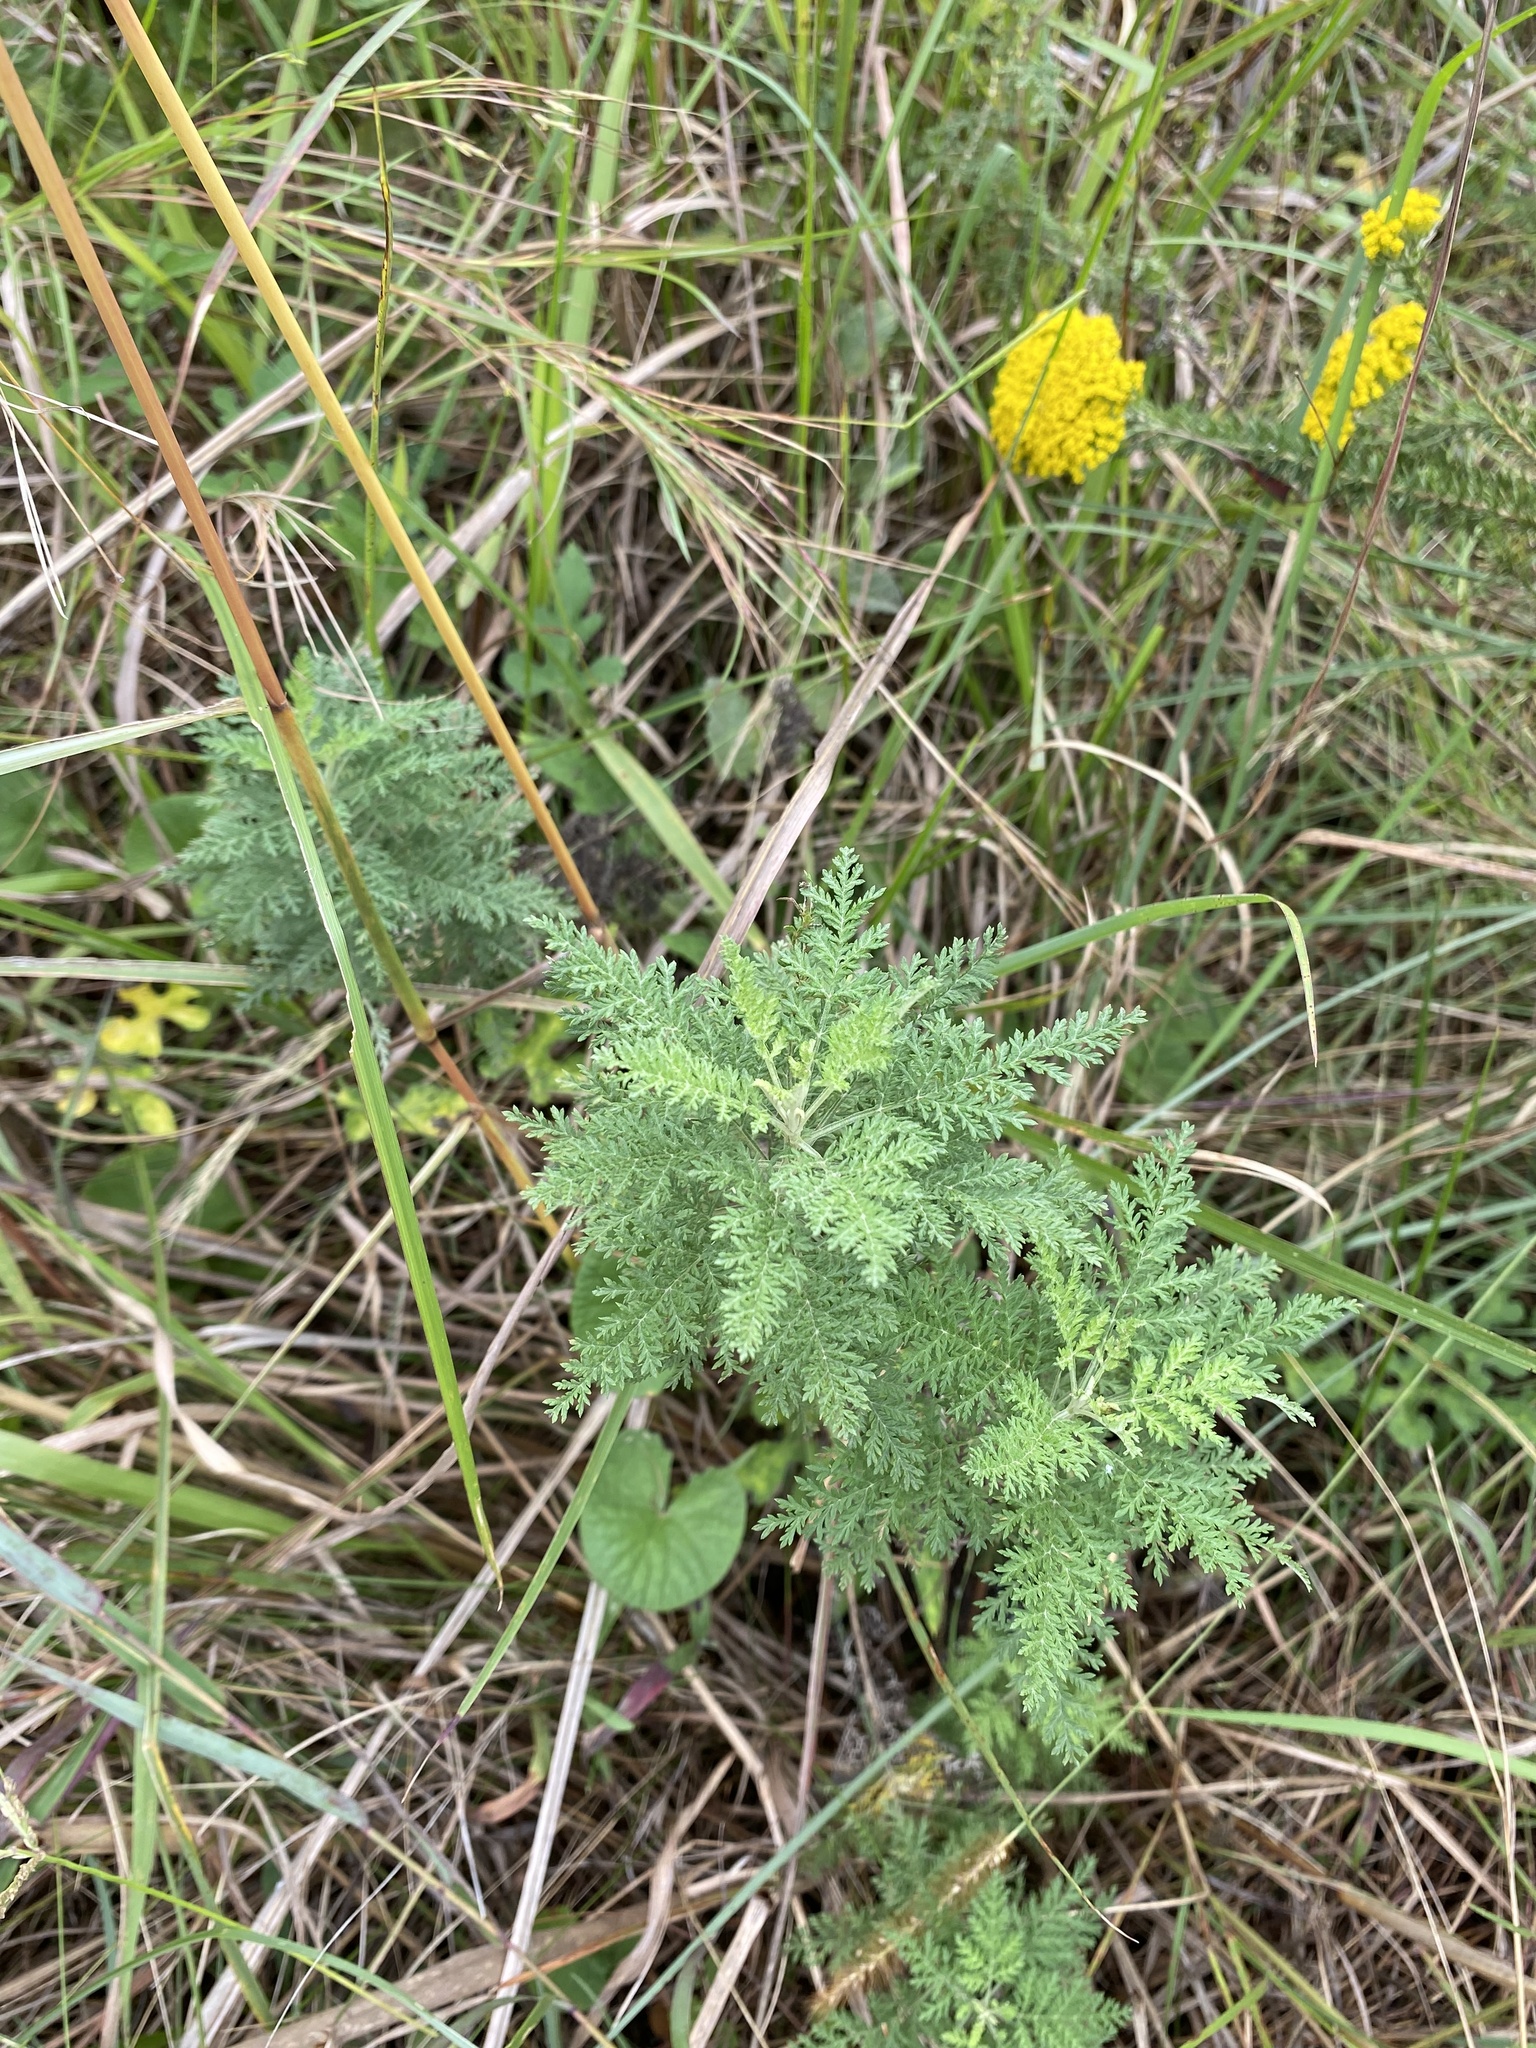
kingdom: Plantae
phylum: Tracheophyta
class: Magnoliopsida
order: Asterales
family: Asteraceae
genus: Artemisia
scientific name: Artemisia afra
